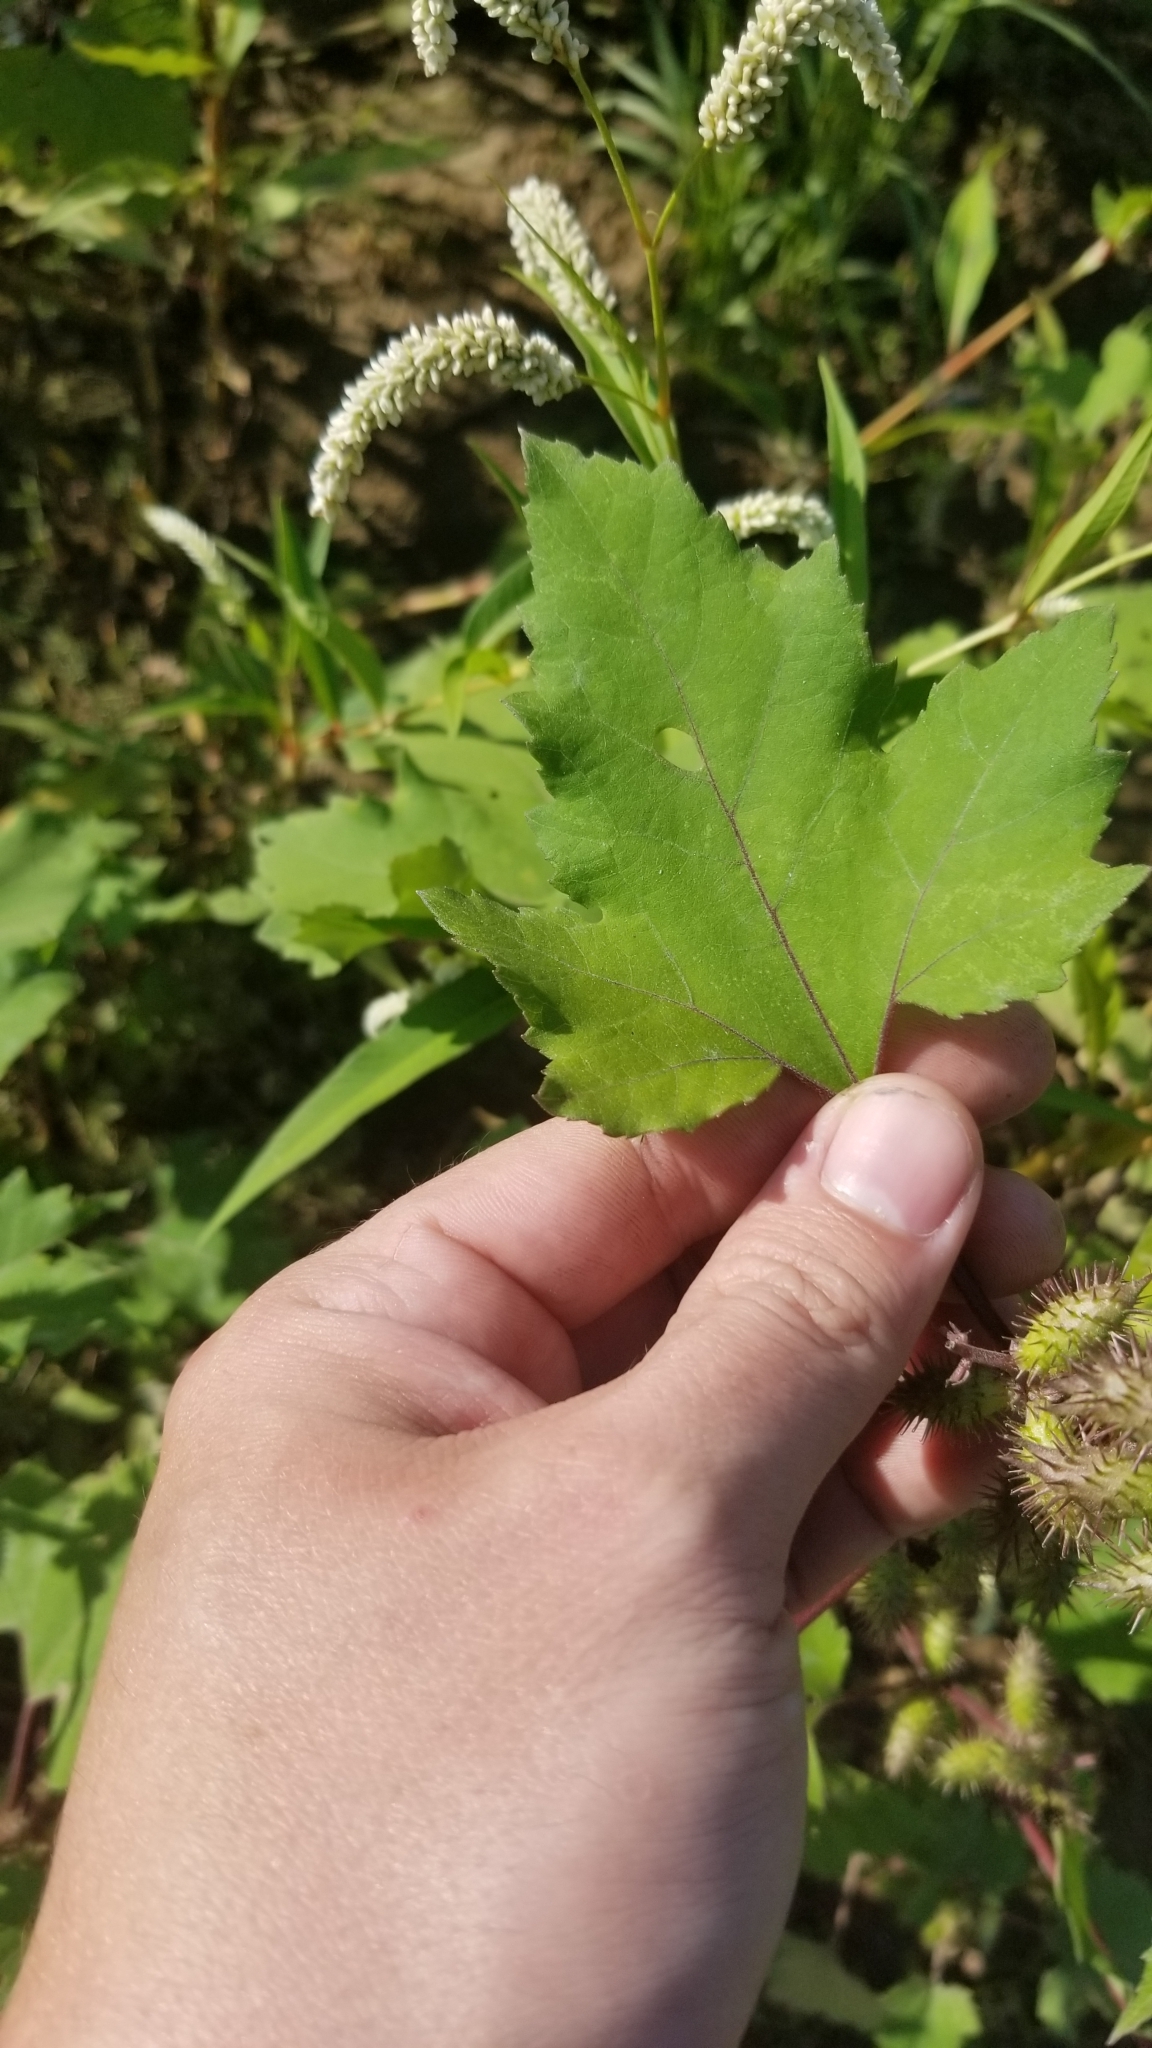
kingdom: Plantae
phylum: Tracheophyta
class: Magnoliopsida
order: Asterales
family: Asteraceae
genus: Xanthium
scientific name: Xanthium strumarium
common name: Rough cocklebur
